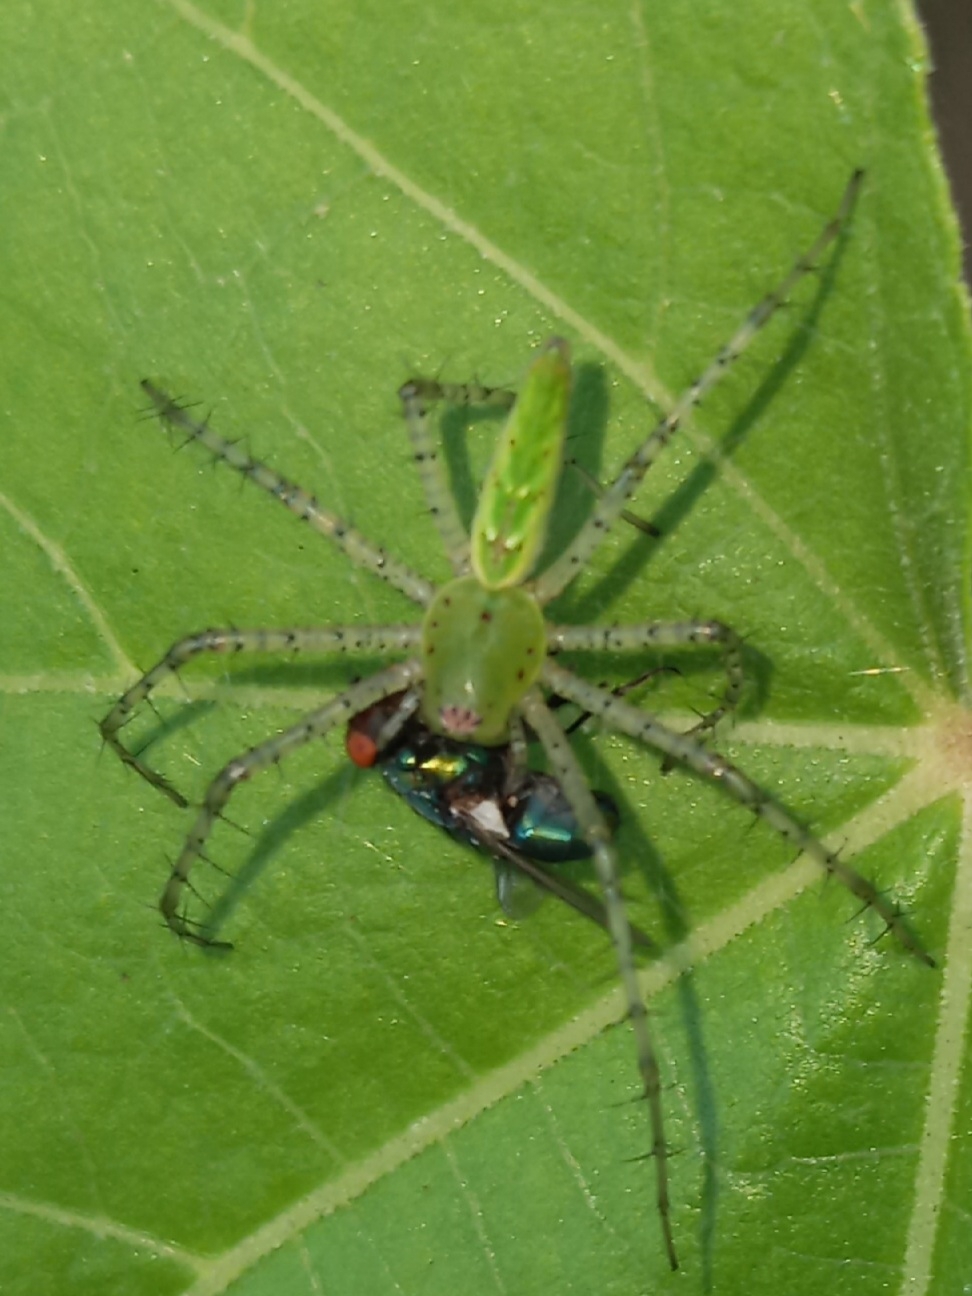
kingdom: Animalia
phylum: Arthropoda
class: Arachnida
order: Araneae
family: Oxyopidae
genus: Peucetia
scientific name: Peucetia viridans
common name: Lynx spiders
